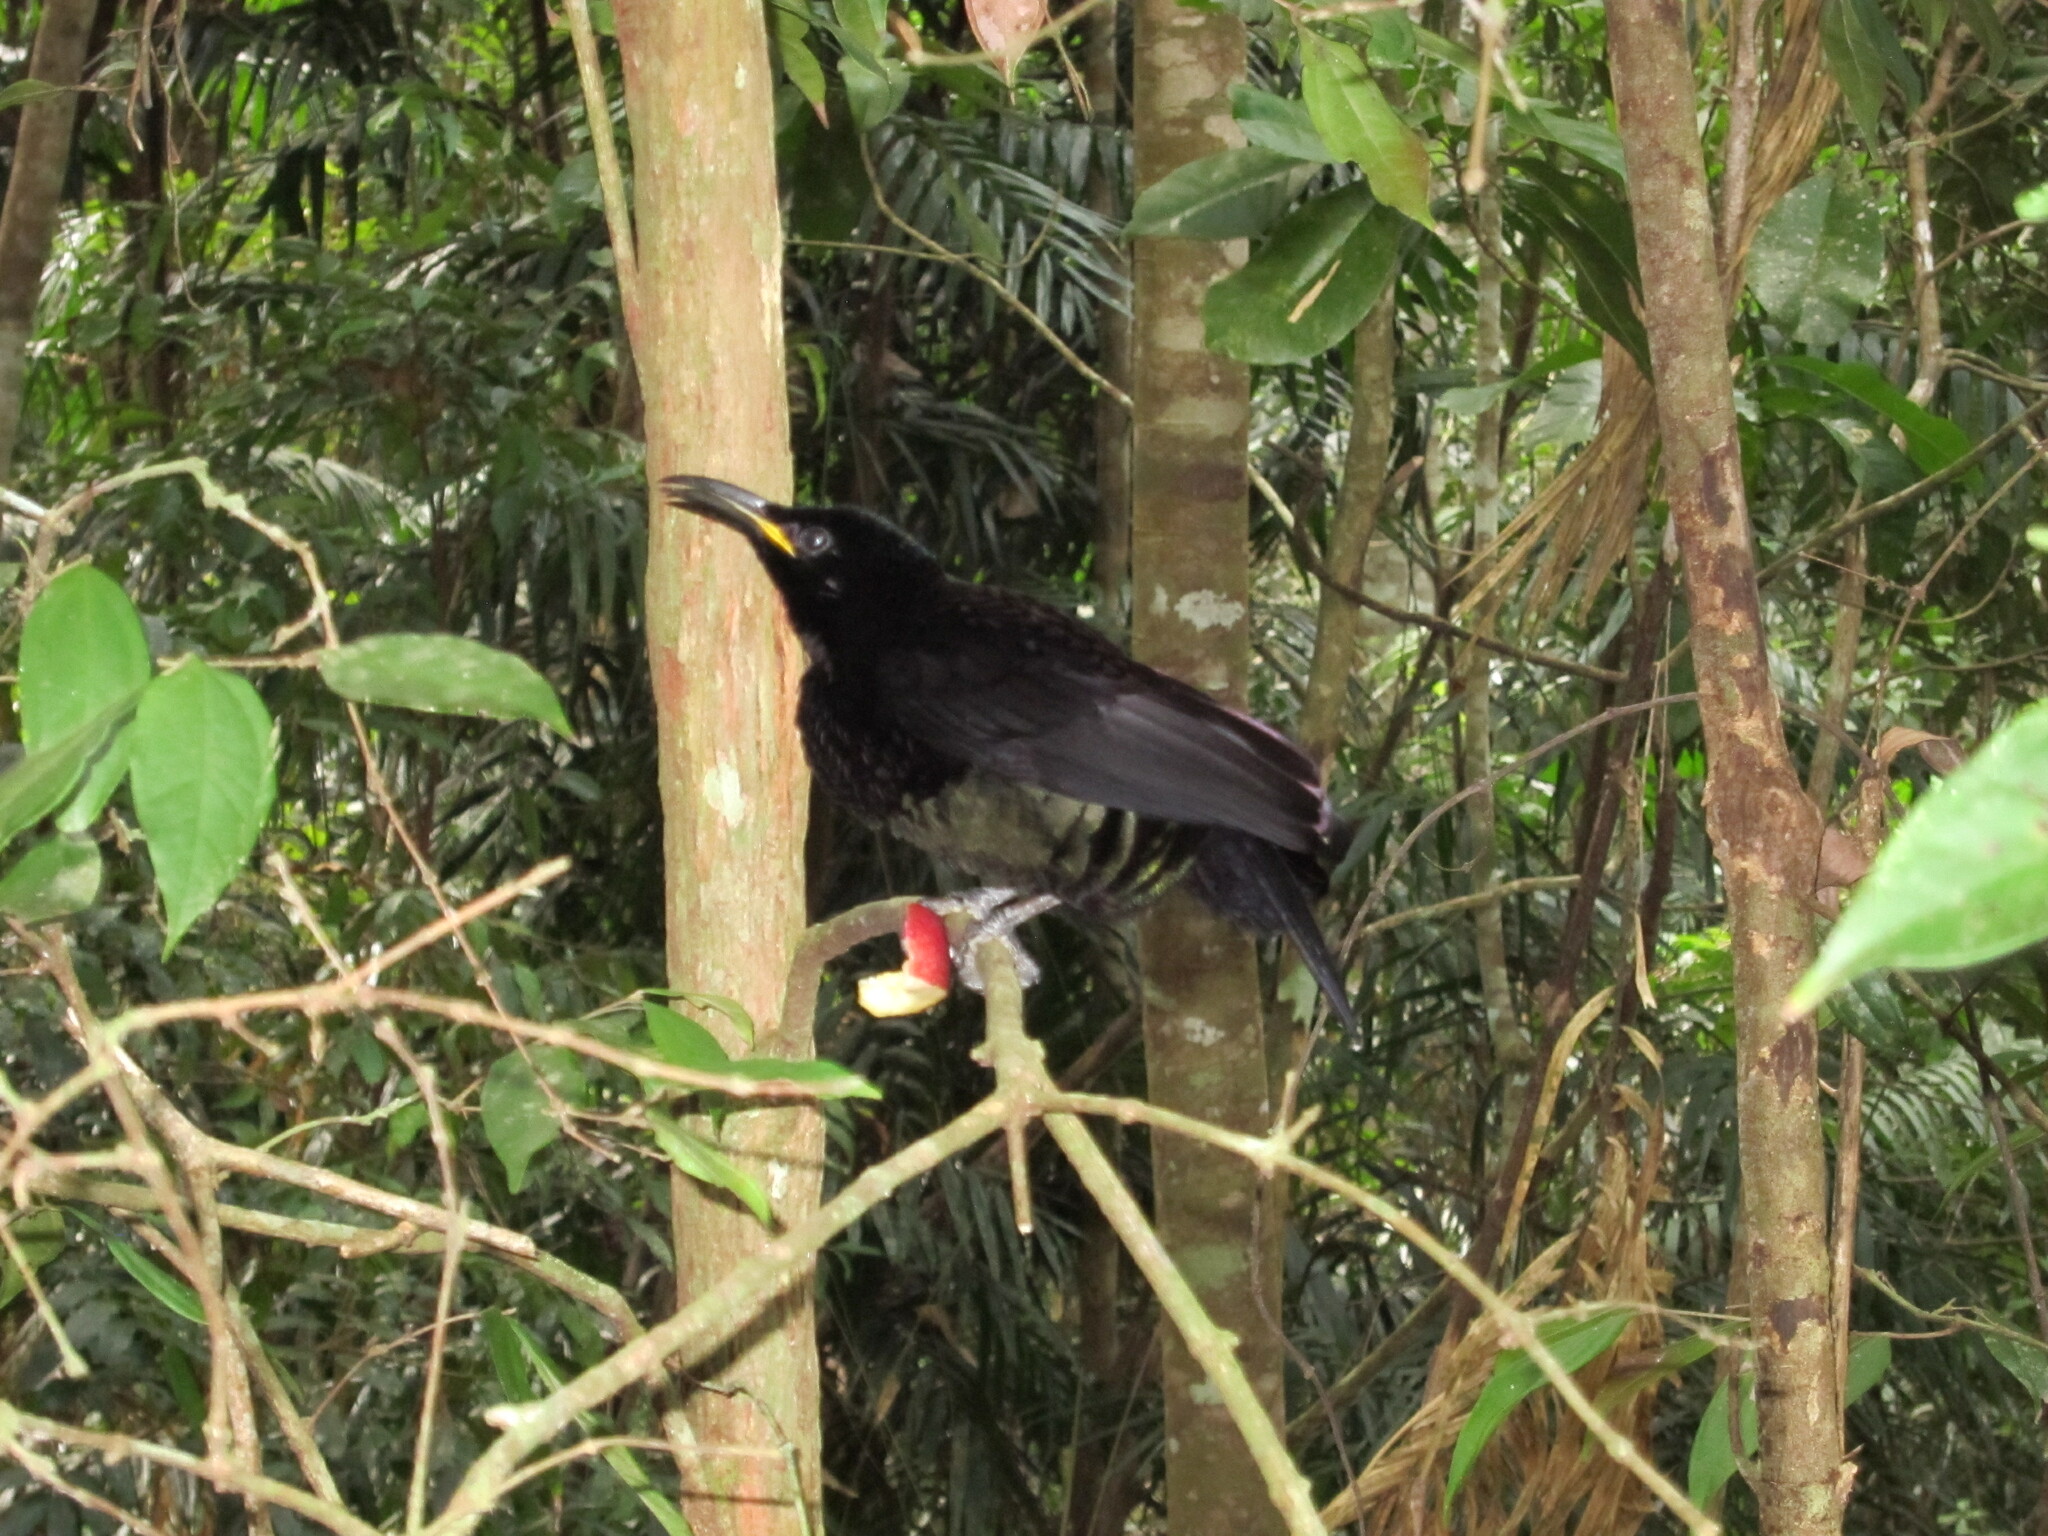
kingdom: Animalia
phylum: Chordata
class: Aves
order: Passeriformes
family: Paradisaeidae
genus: Ptiloris
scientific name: Ptiloris victoriae
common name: Victoria's riflebird
